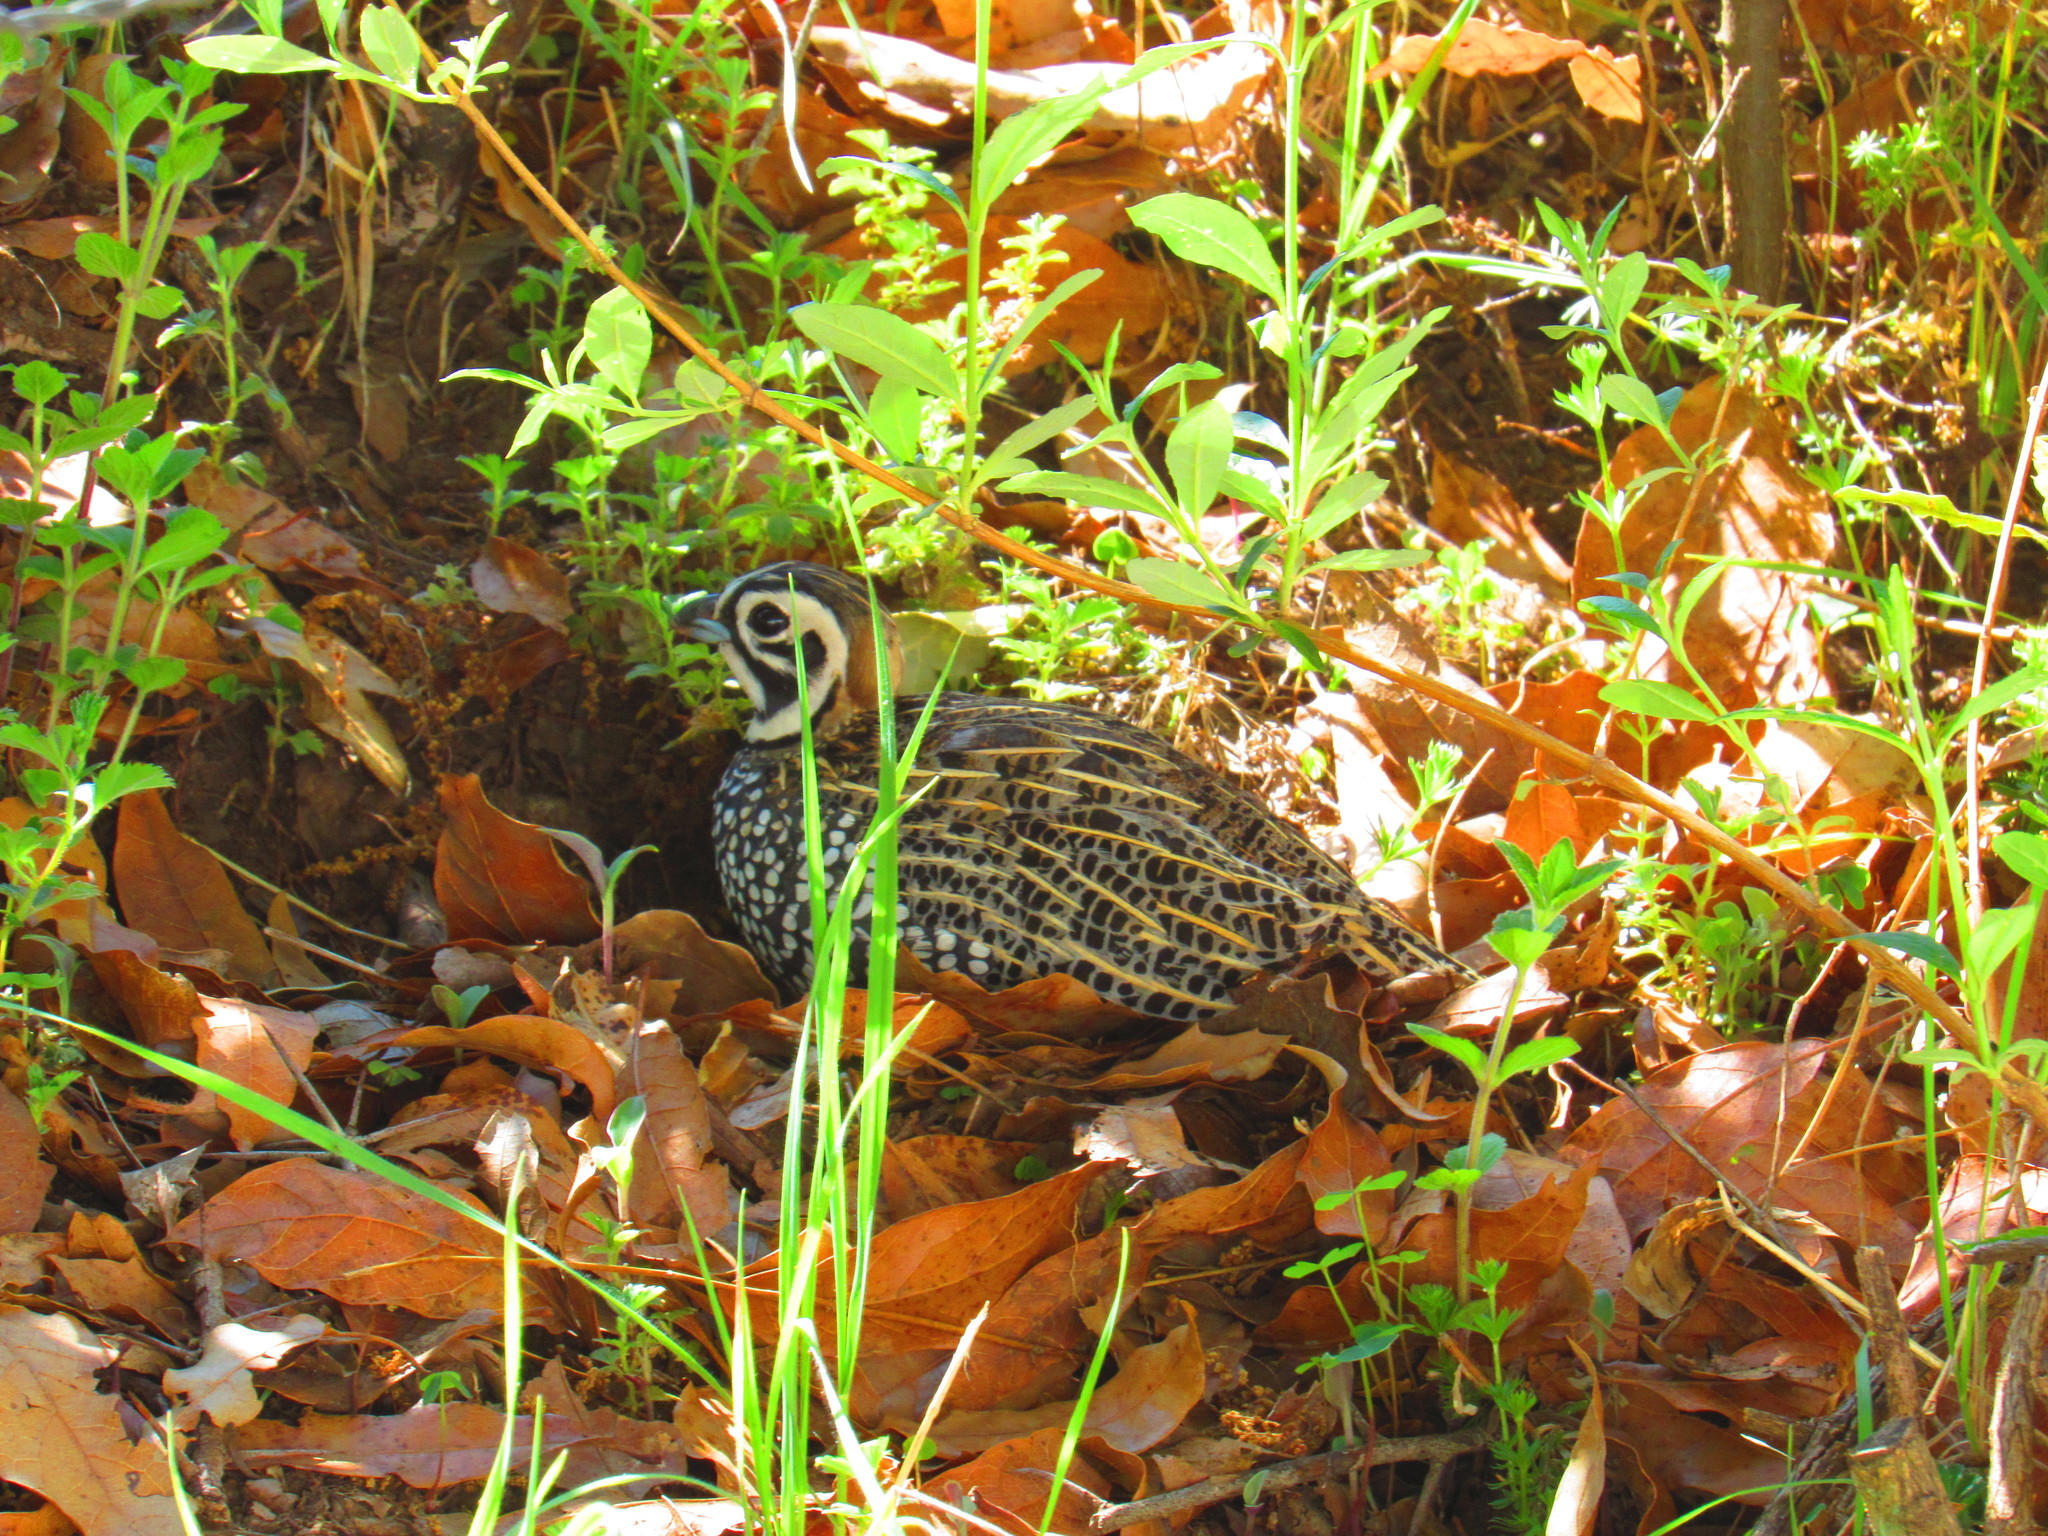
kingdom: Animalia
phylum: Chordata
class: Aves
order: Galliformes
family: Odontophoridae
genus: Cyrtonyx
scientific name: Cyrtonyx montezumae
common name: Montezuma quail
